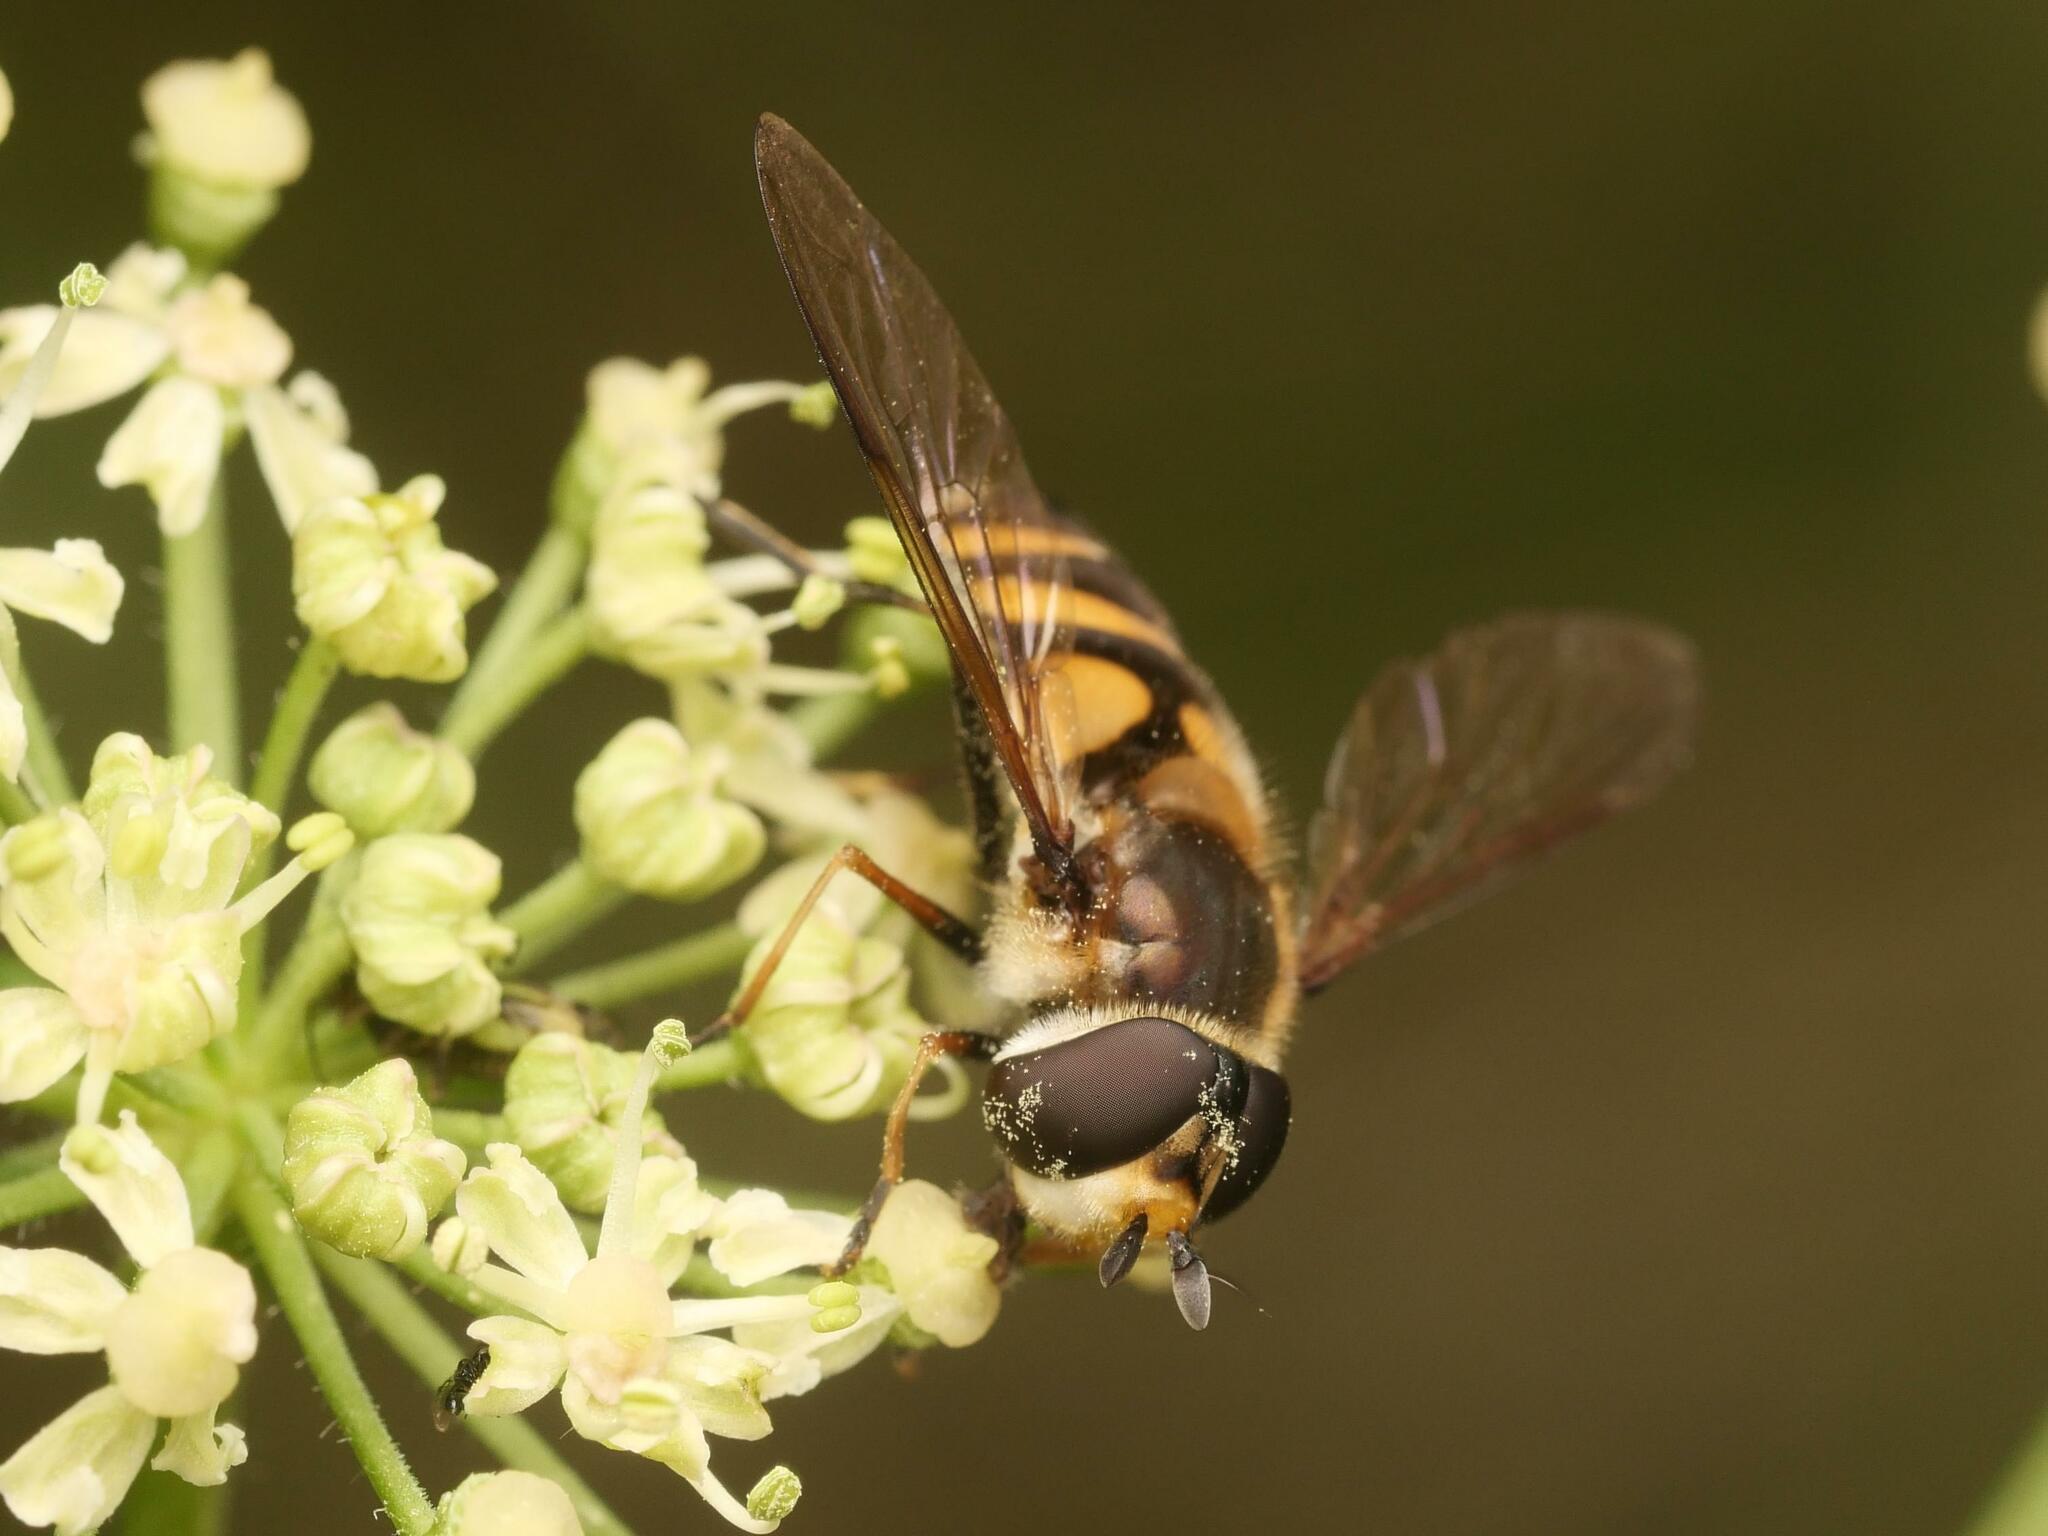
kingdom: Animalia
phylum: Arthropoda
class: Insecta
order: Diptera
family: Syrphidae
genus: Didea
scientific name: Didea fasciata
